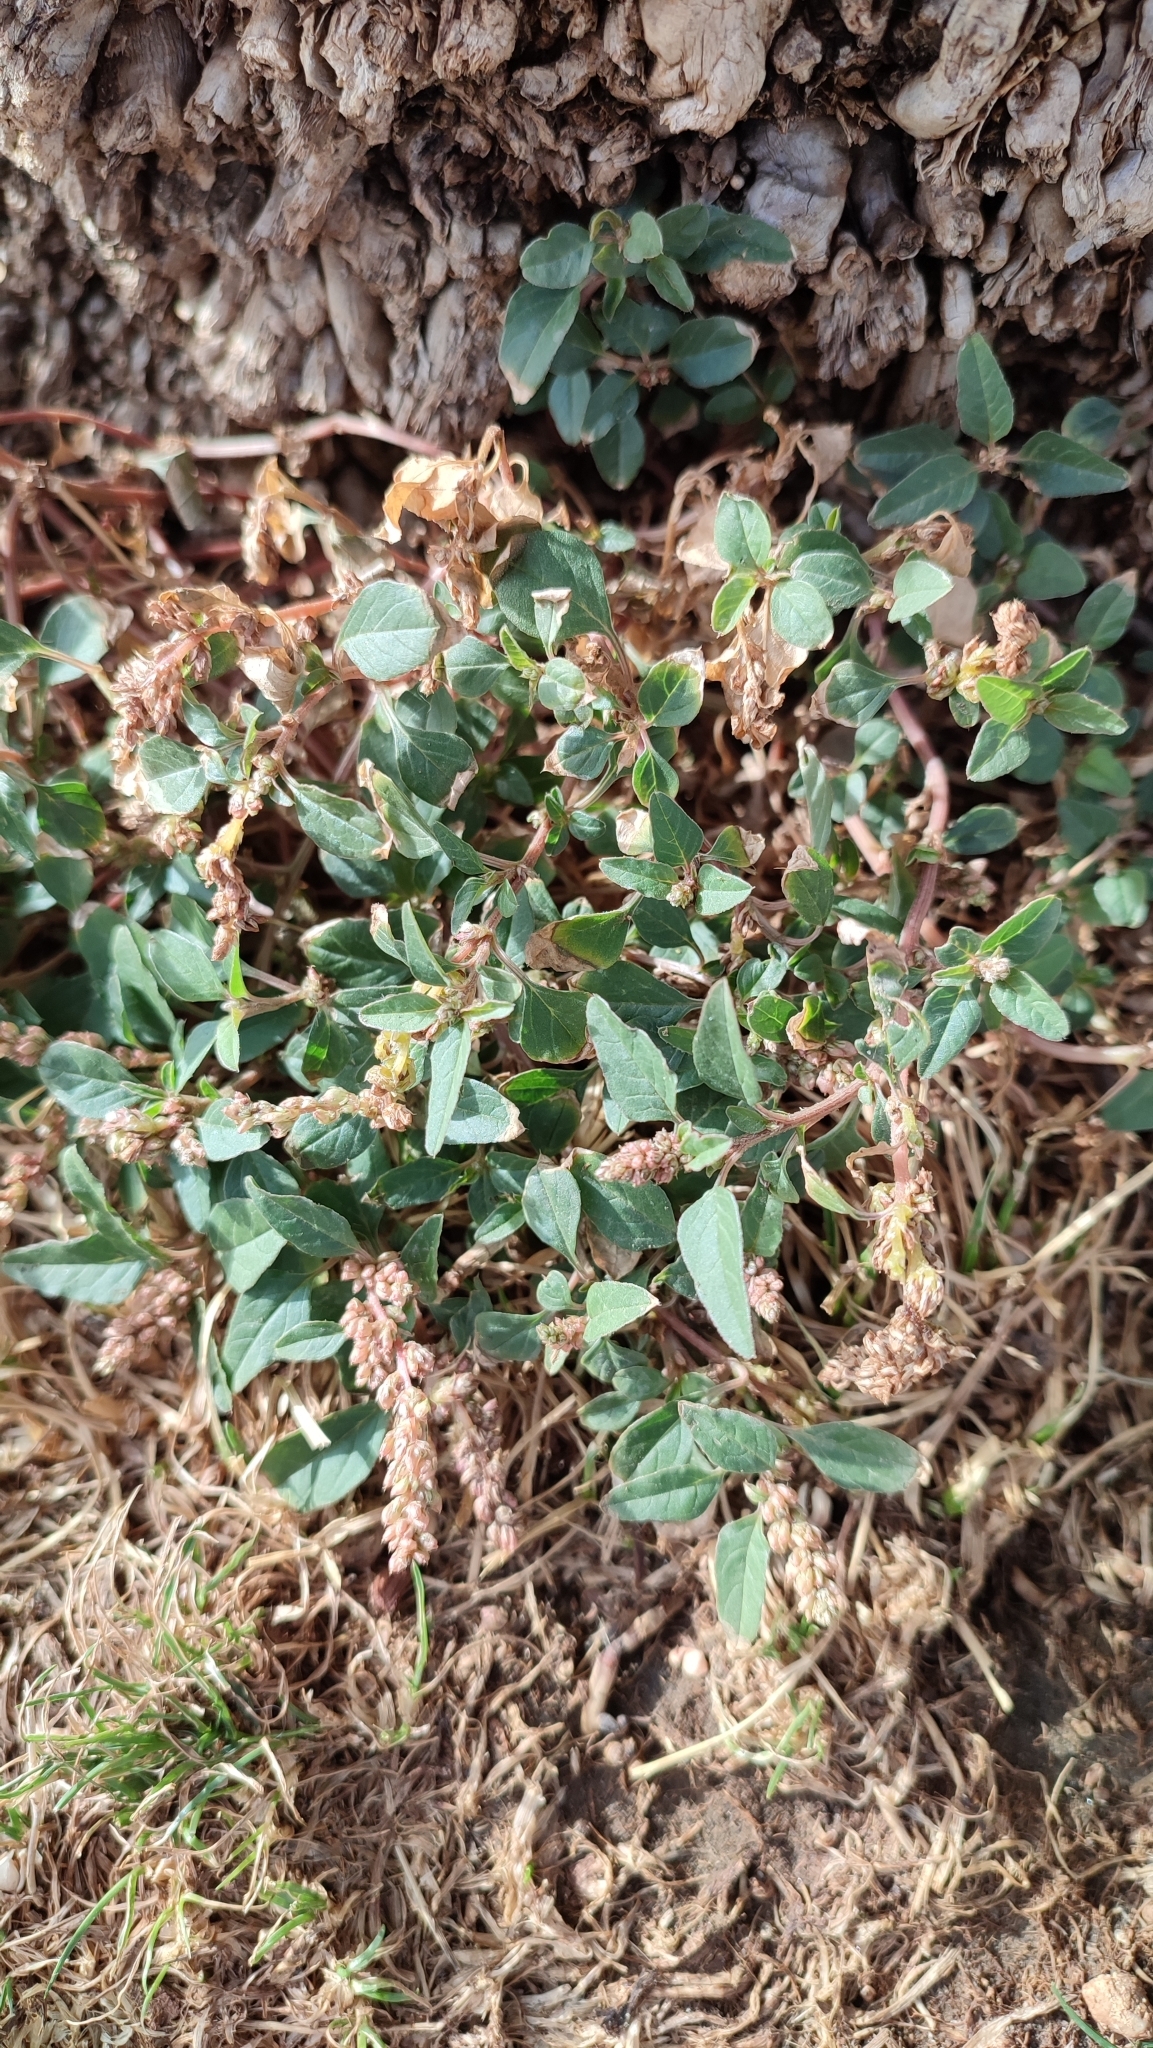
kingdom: Plantae
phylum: Tracheophyta
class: Magnoliopsida
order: Caryophyllales
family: Amaranthaceae
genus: Amaranthus
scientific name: Amaranthus deflexus
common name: Perennial pigweed
